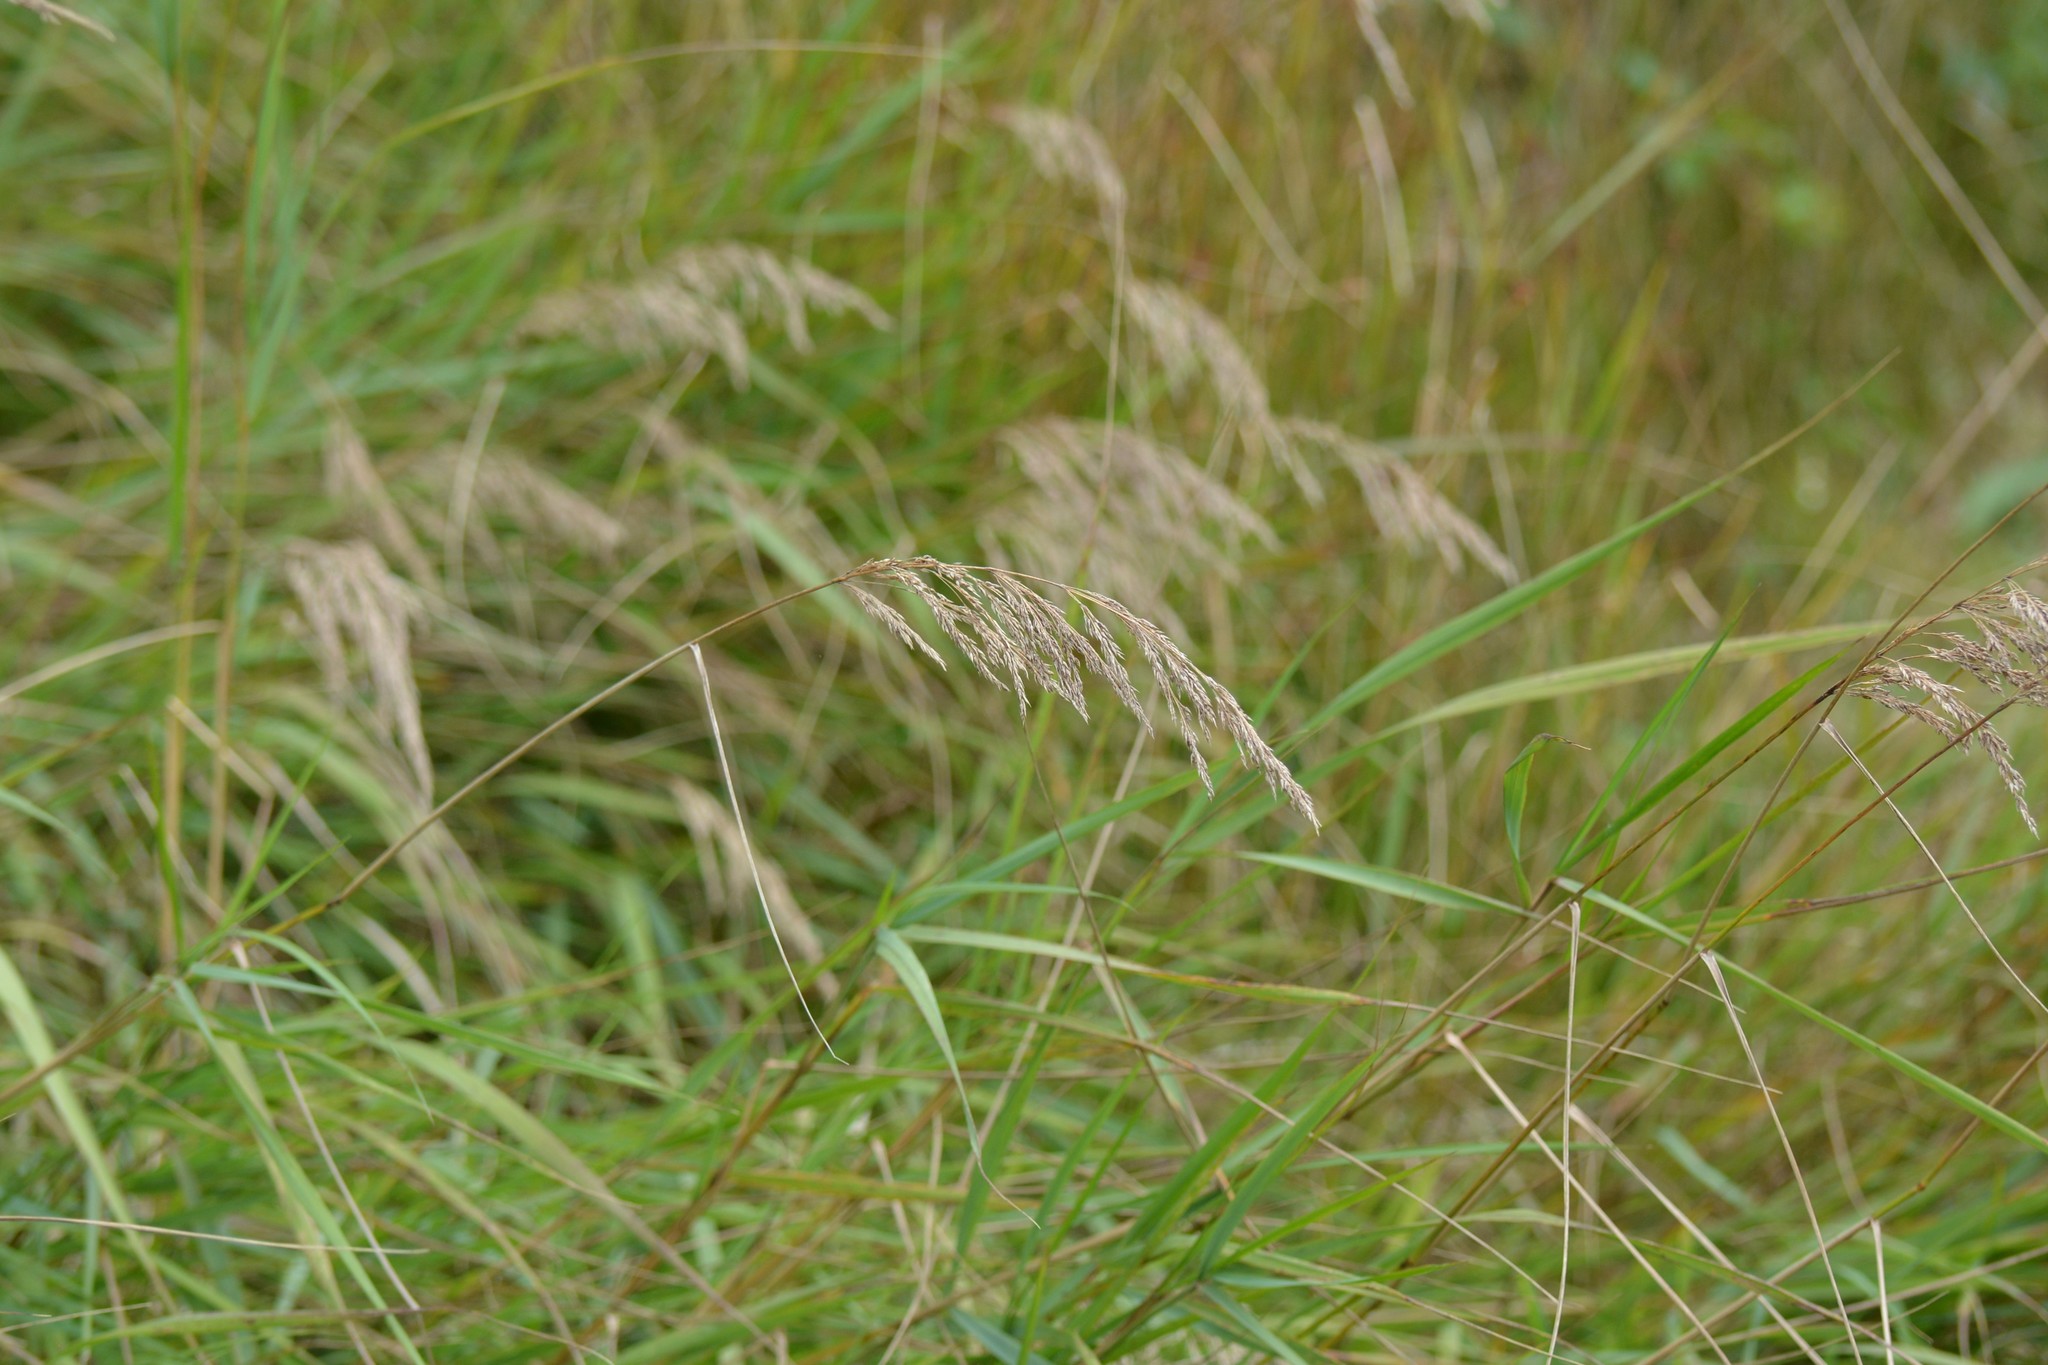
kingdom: Plantae
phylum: Tracheophyta
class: Liliopsida
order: Poales
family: Poaceae
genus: Calamagrostis
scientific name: Calamagrostis canadensis
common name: Canada bluejoint
